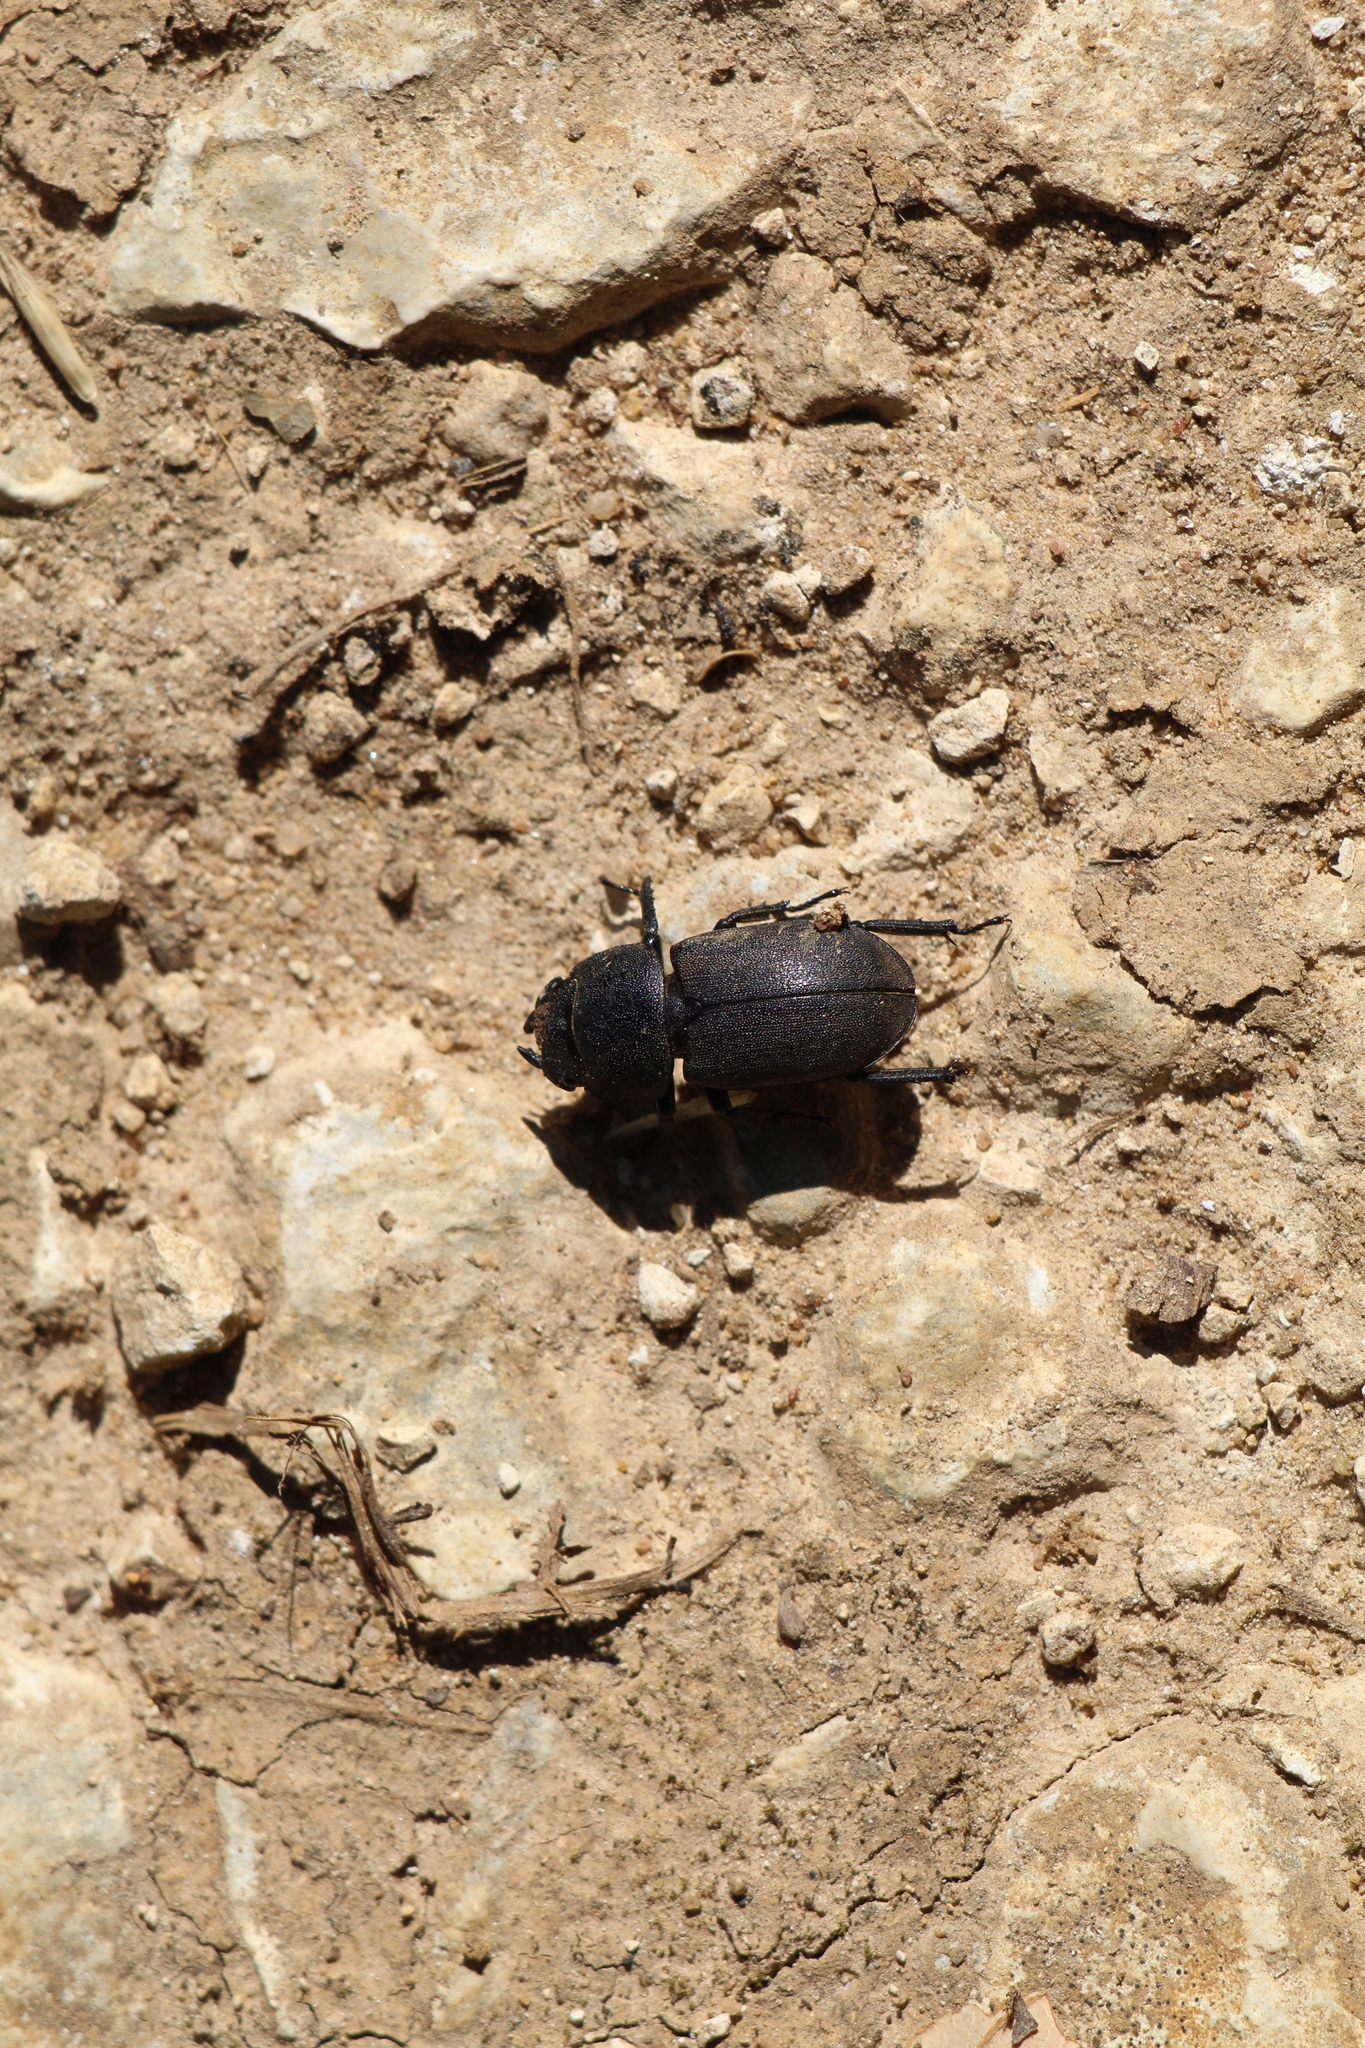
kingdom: Animalia
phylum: Arthropoda
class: Insecta
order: Coleoptera
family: Lucanidae
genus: Dorcus
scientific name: Dorcus parallelipipedus
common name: Lesser stag beetle
